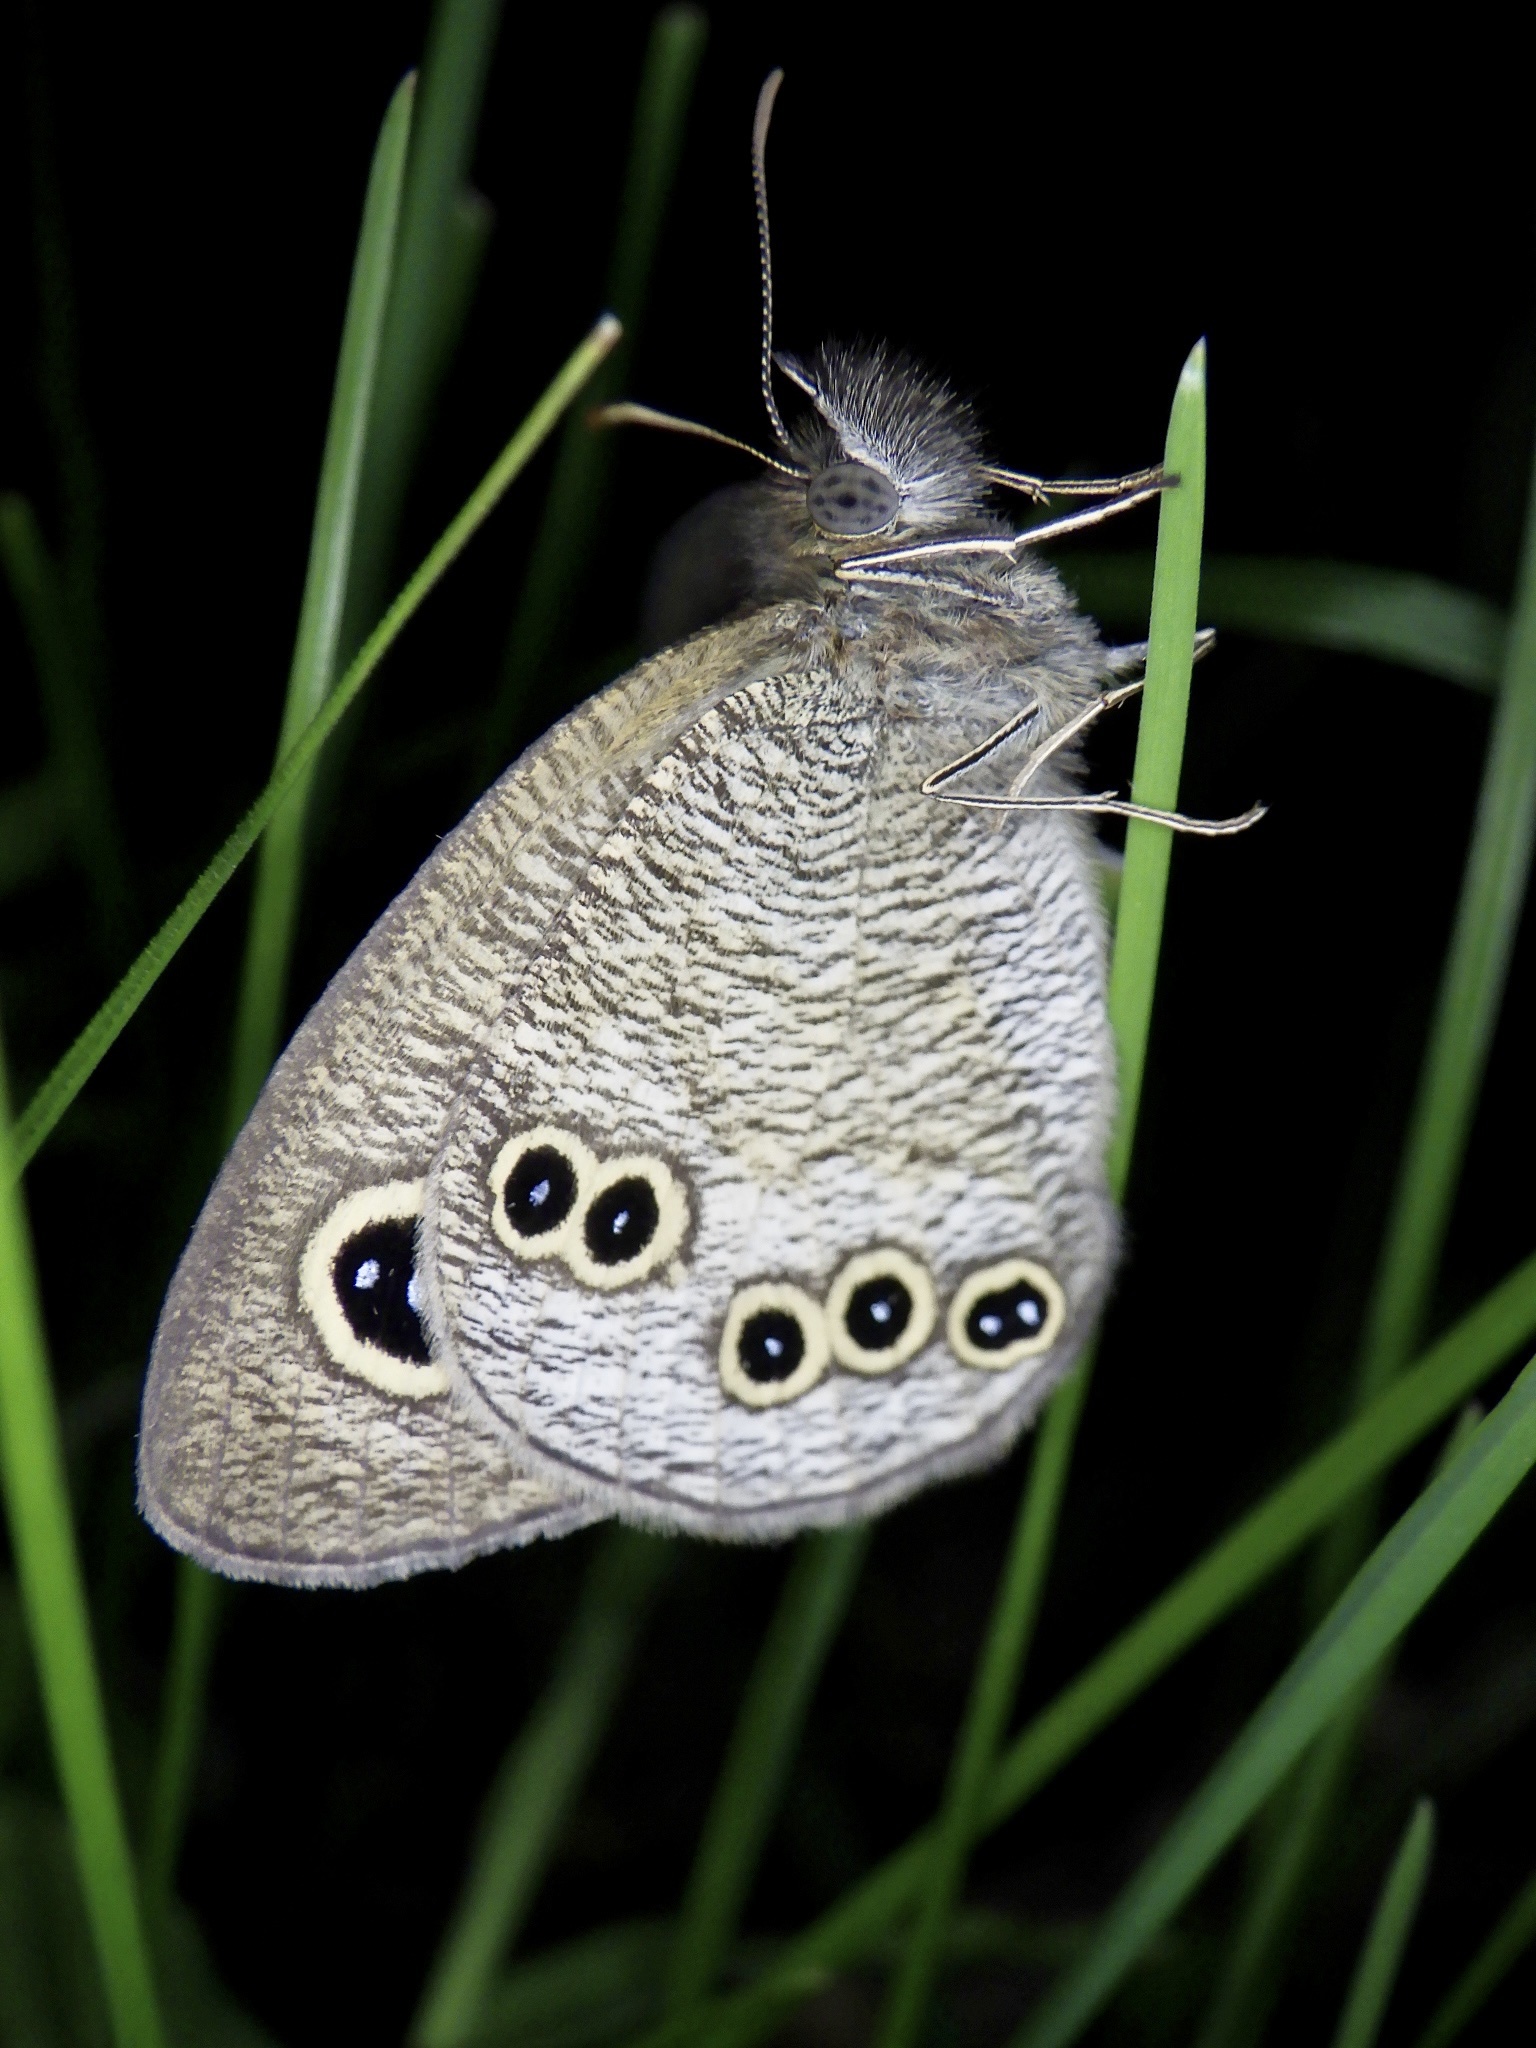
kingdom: Animalia
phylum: Arthropoda
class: Insecta
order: Lepidoptera
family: Nymphalidae
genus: Ypthima
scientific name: Ypthima argus
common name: Common fivering
